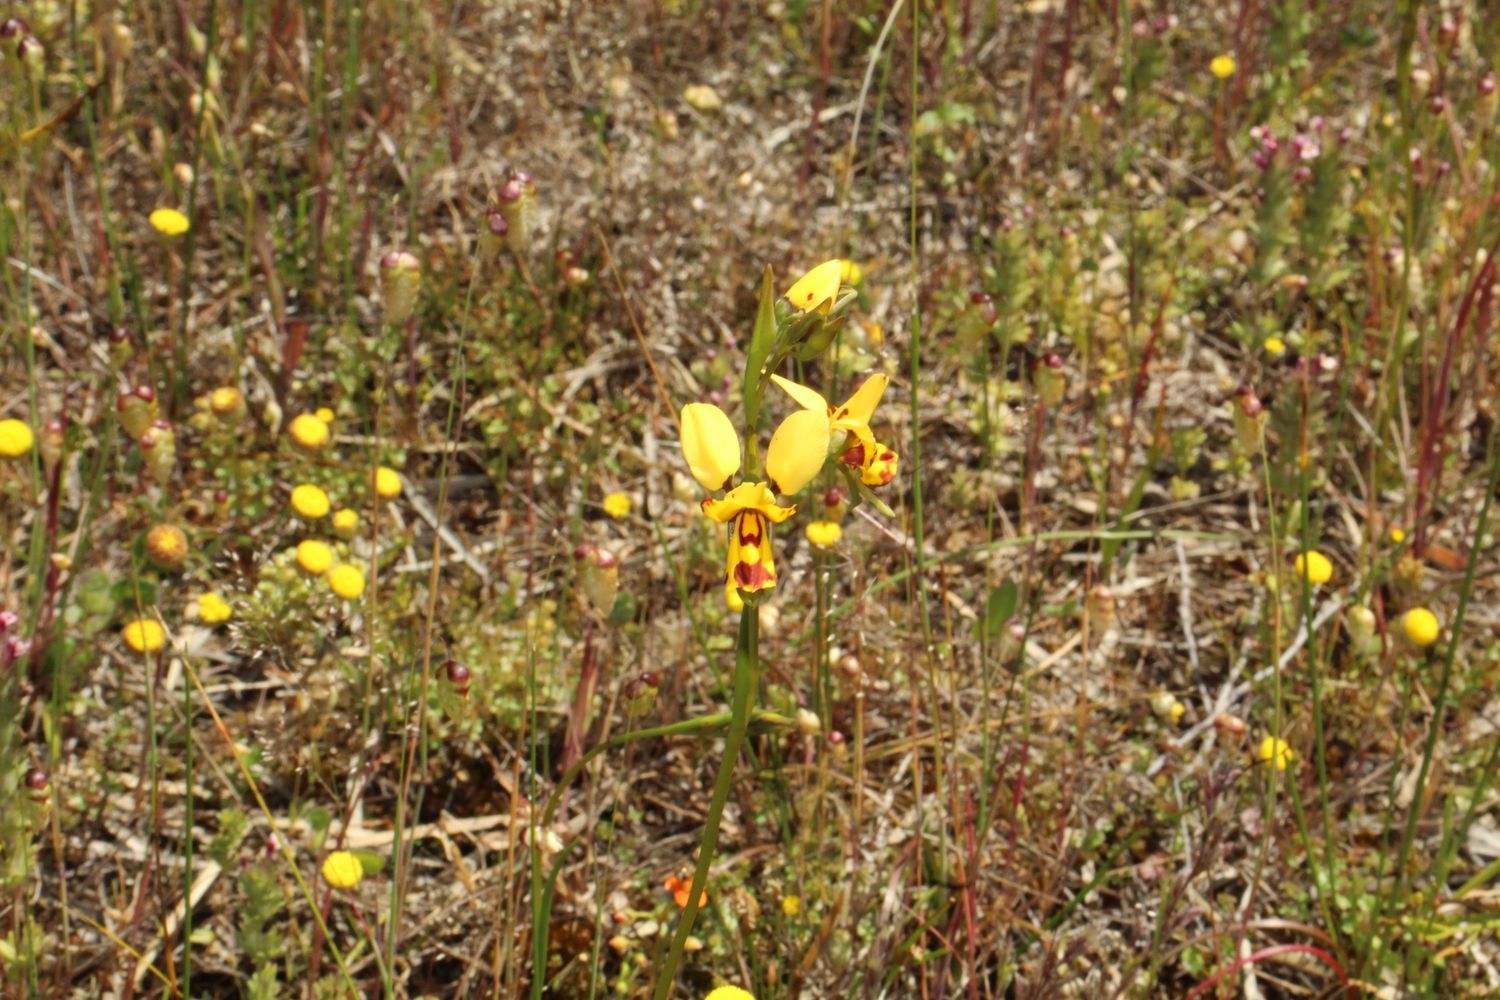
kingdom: Plantae
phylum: Tracheophyta
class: Liliopsida
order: Asparagales
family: Orchidaceae
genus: Diuris
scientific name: Diuris picta
